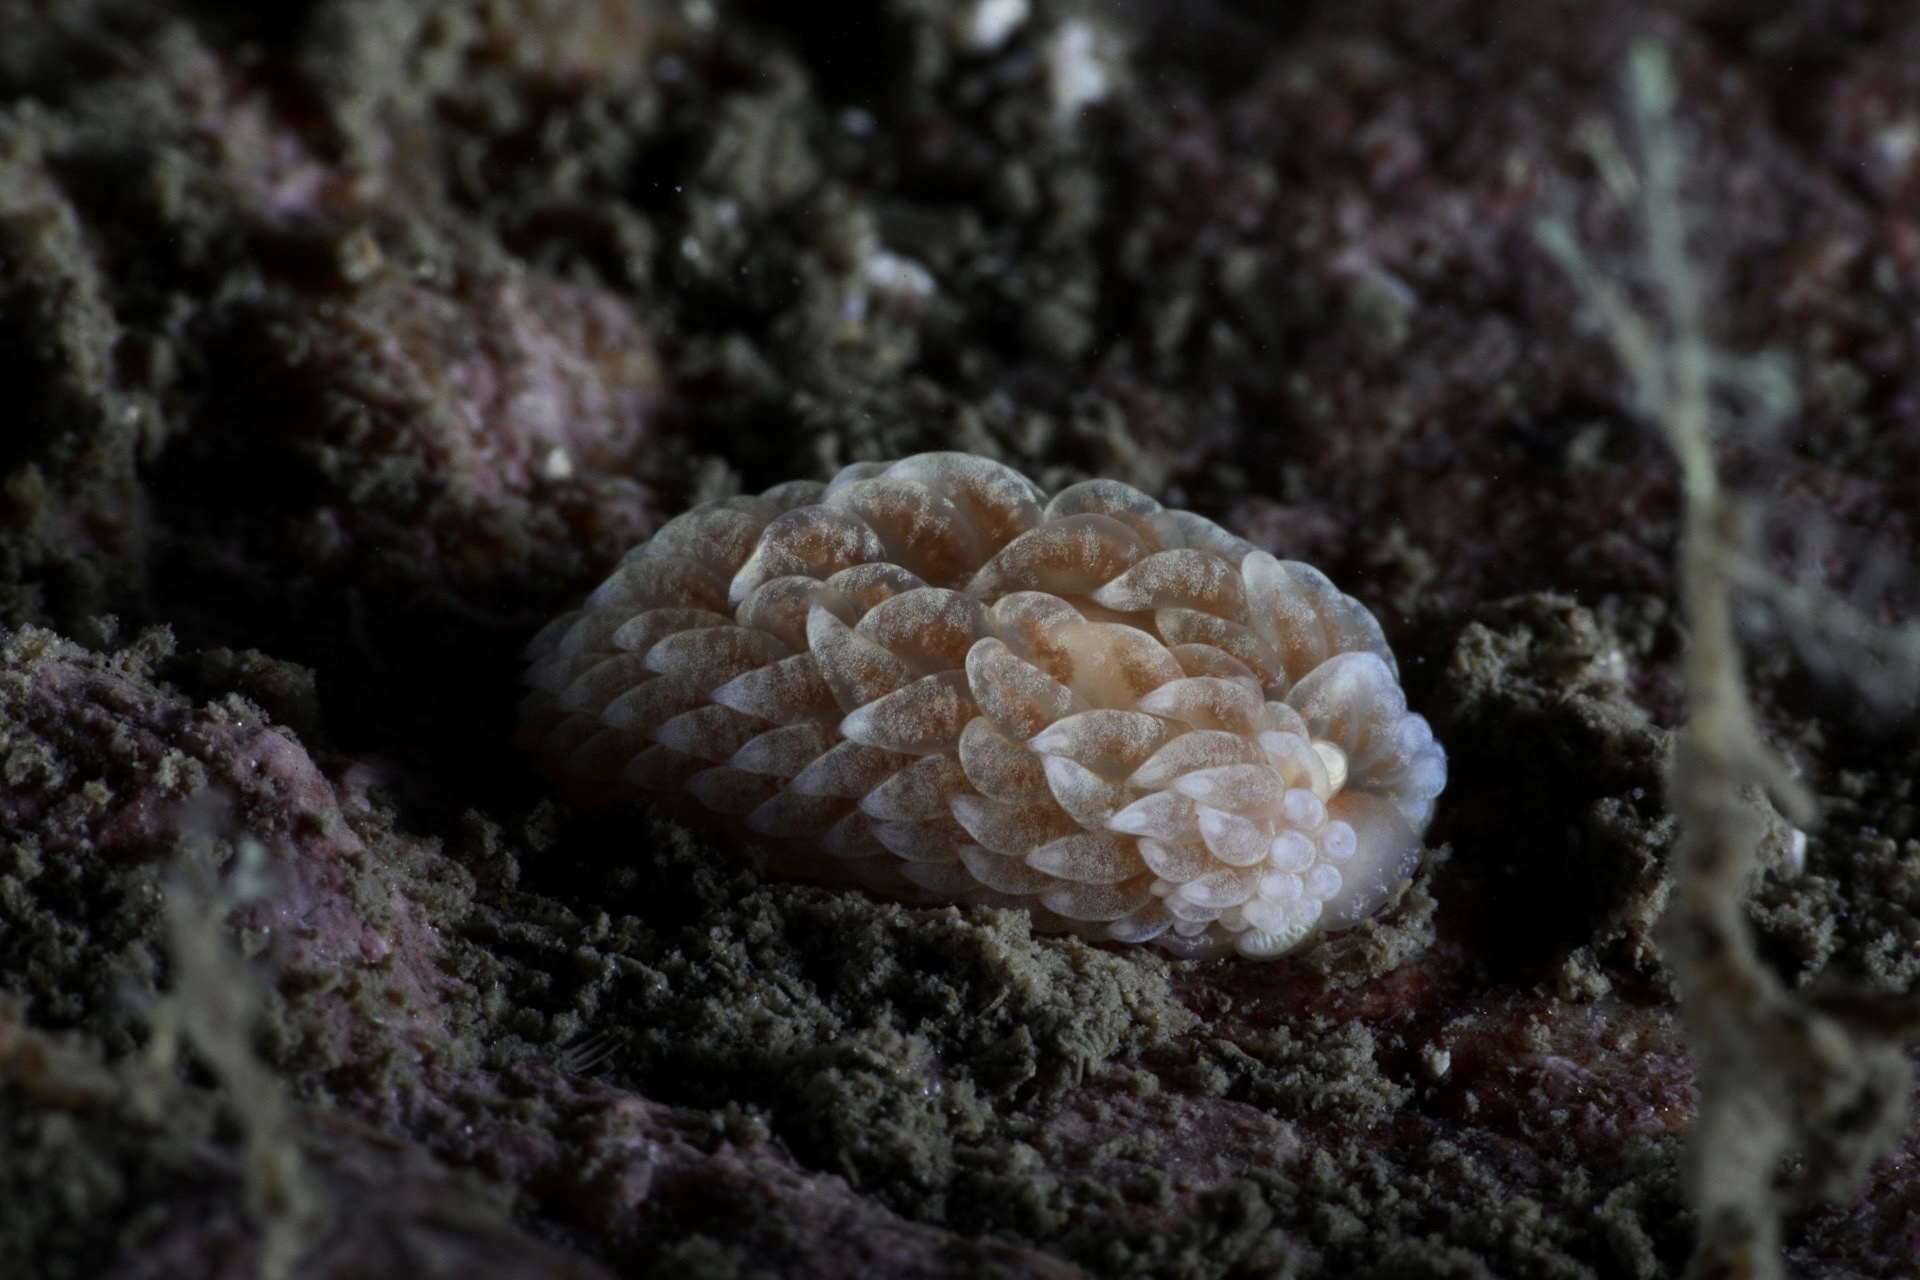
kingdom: Animalia
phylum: Mollusca
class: Gastropoda
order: Nudibranchia
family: Aeolidiidae
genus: Aeolidiella
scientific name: Aeolidiella glauca
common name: Orange-brown aeolid
